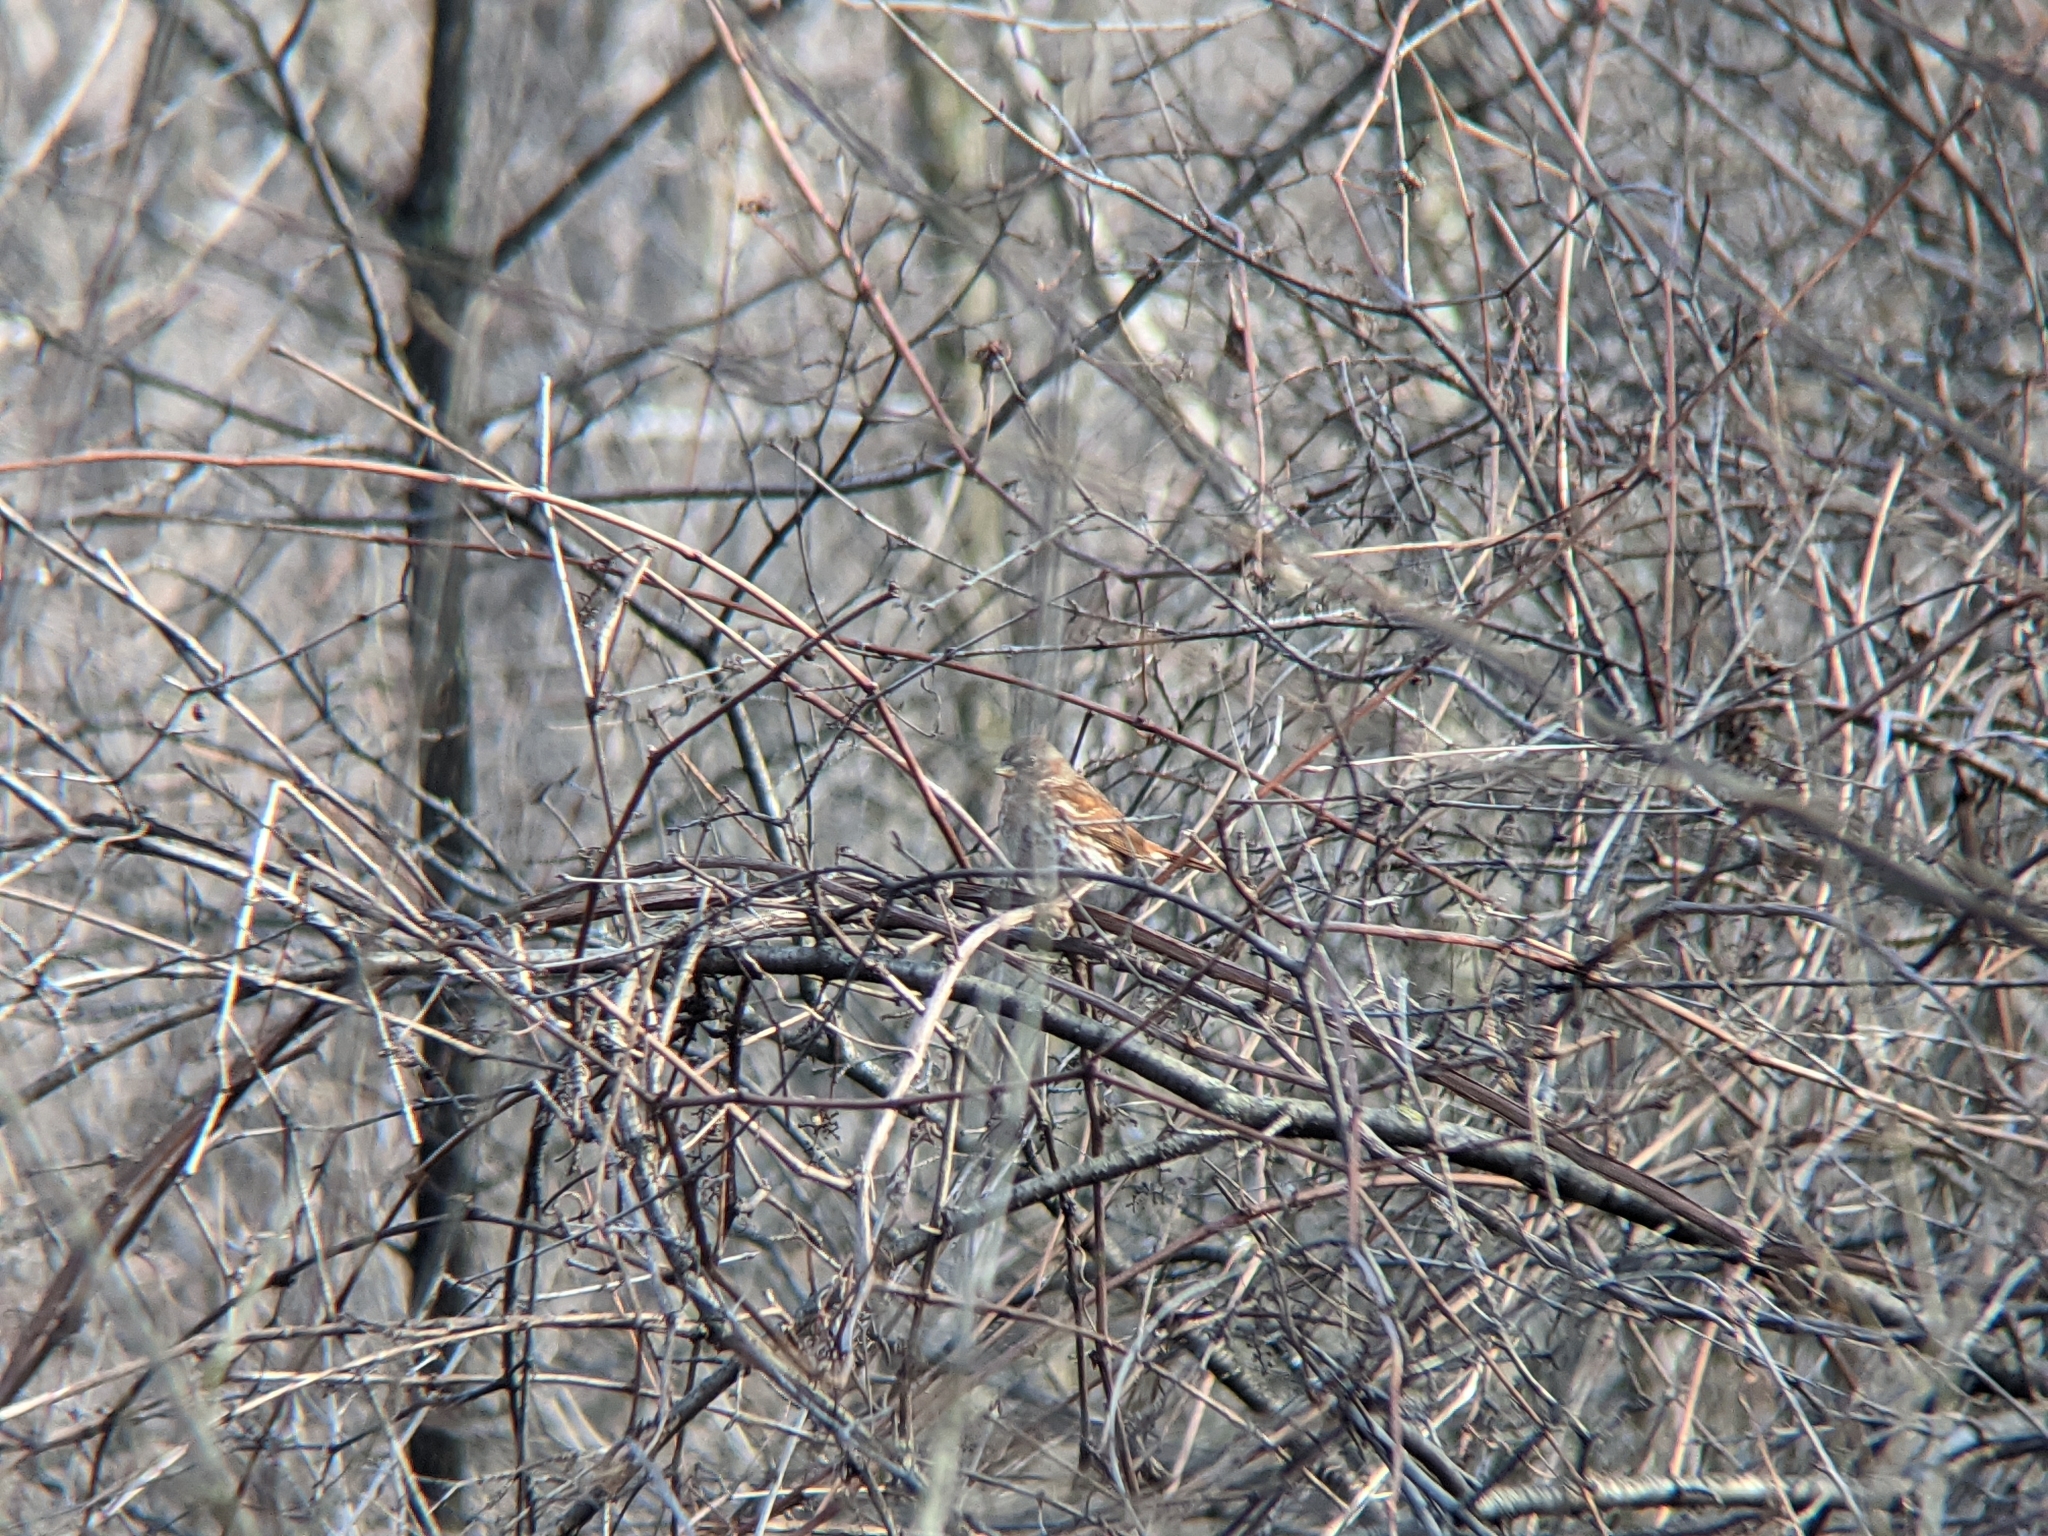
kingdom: Animalia
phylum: Chordata
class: Aves
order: Passeriformes
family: Passerellidae
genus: Passerella
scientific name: Passerella iliaca
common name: Fox sparrow
